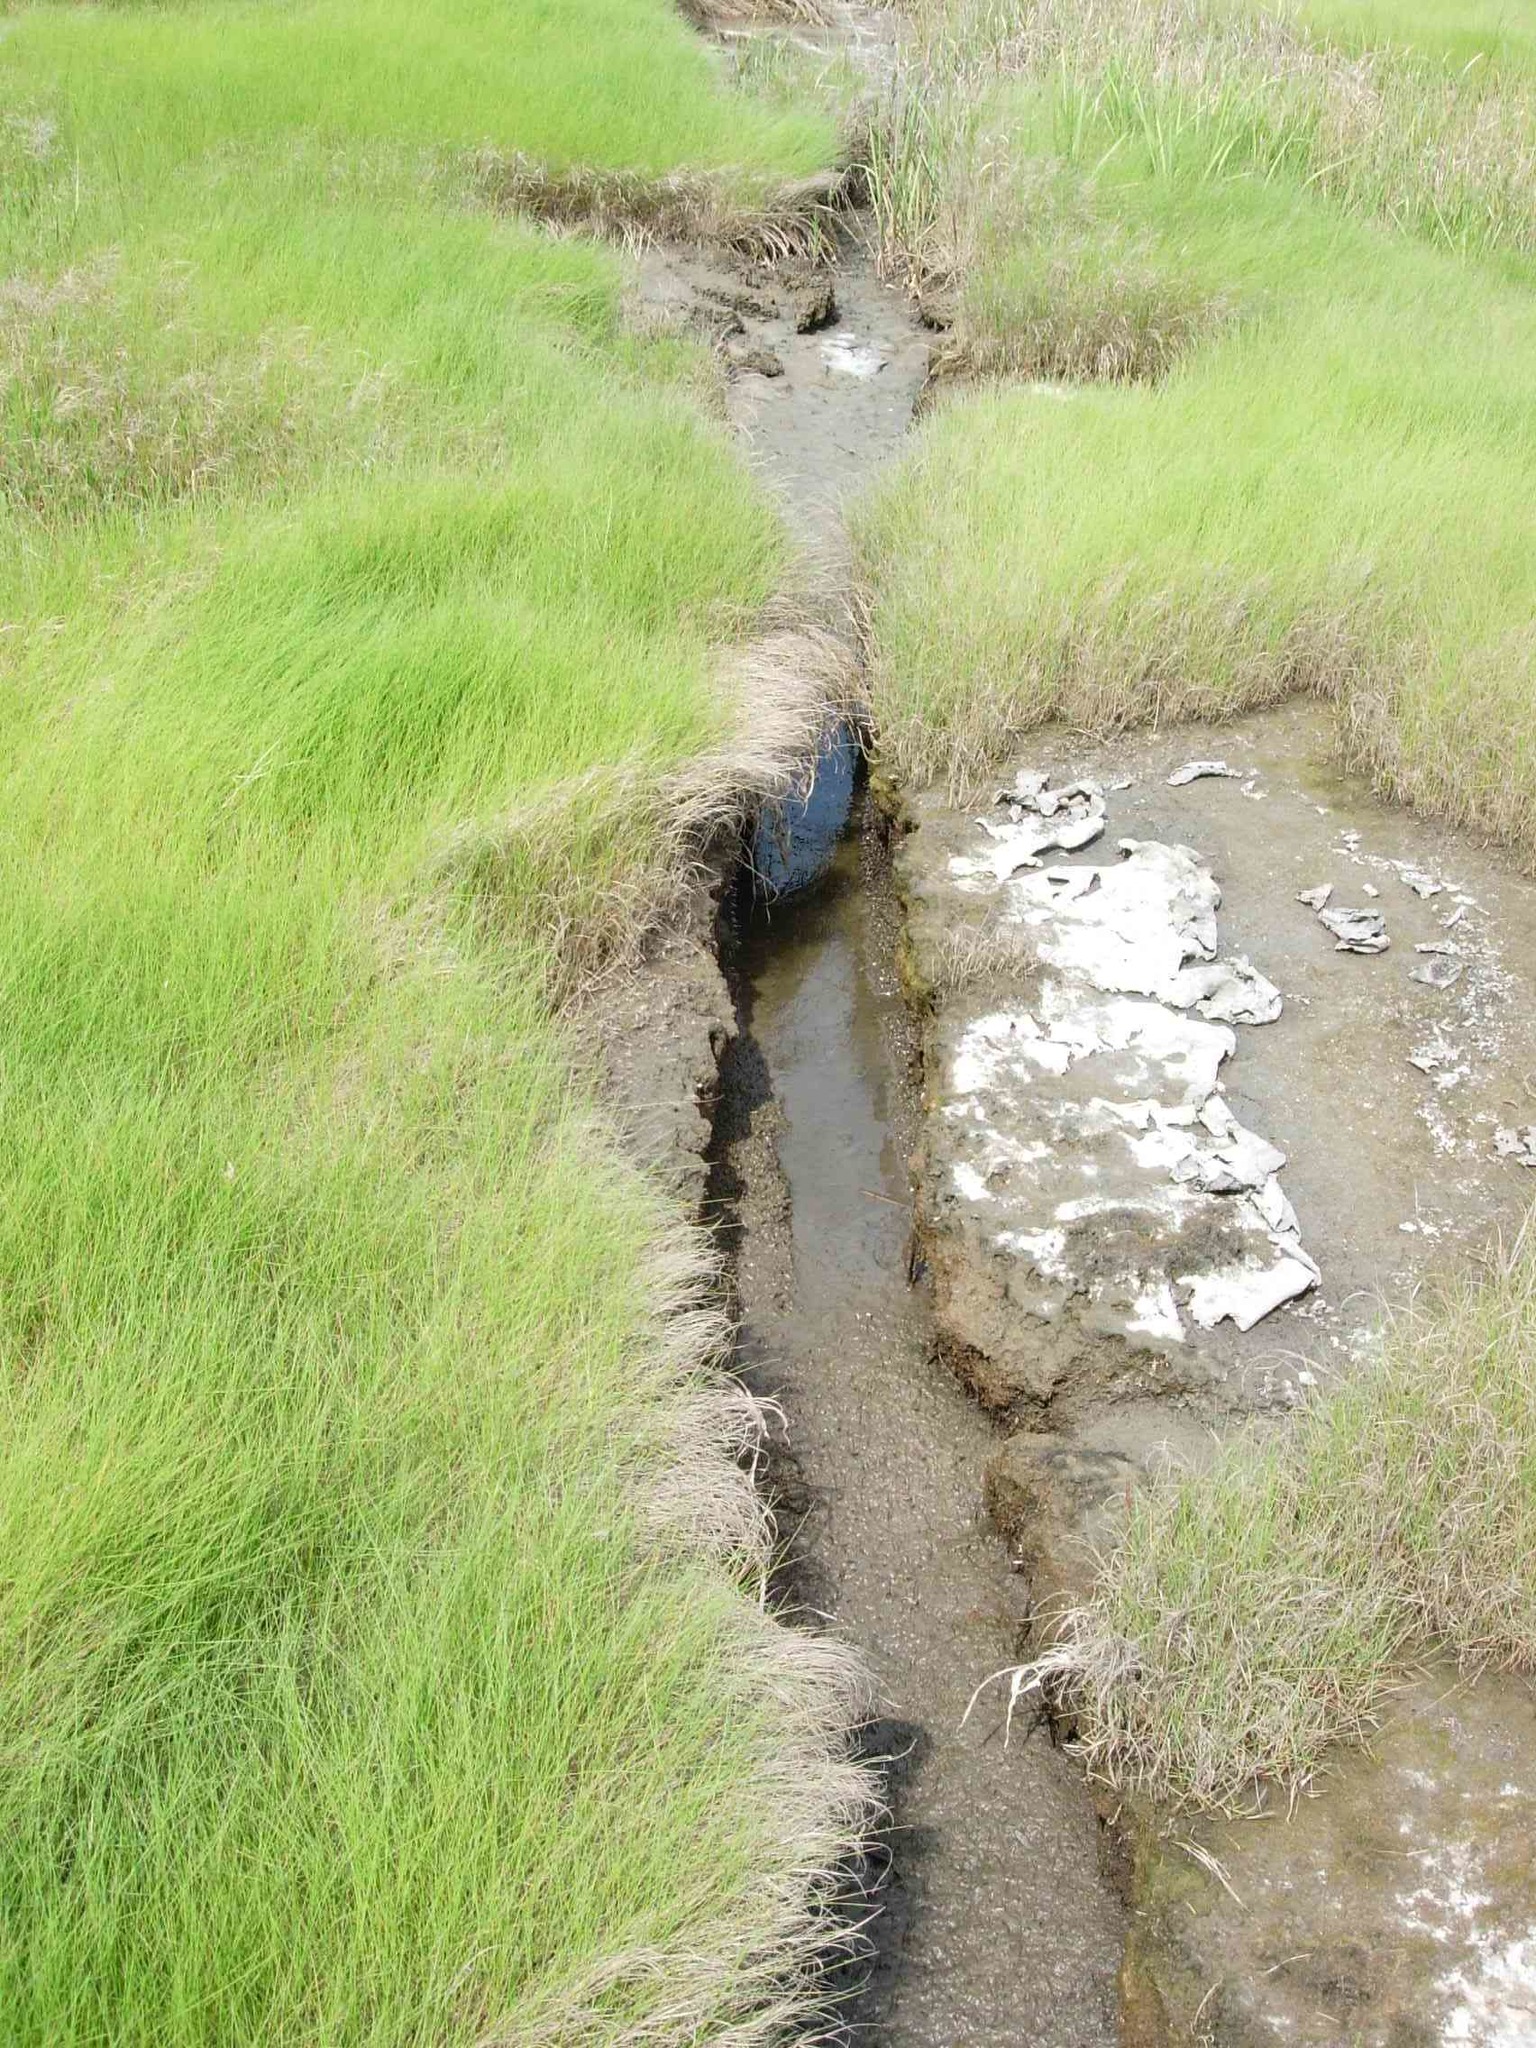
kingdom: Plantae
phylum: Tracheophyta
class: Liliopsida
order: Poales
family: Poaceae
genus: Sporobolus
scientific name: Sporobolus pumilus
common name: Highwater grass
